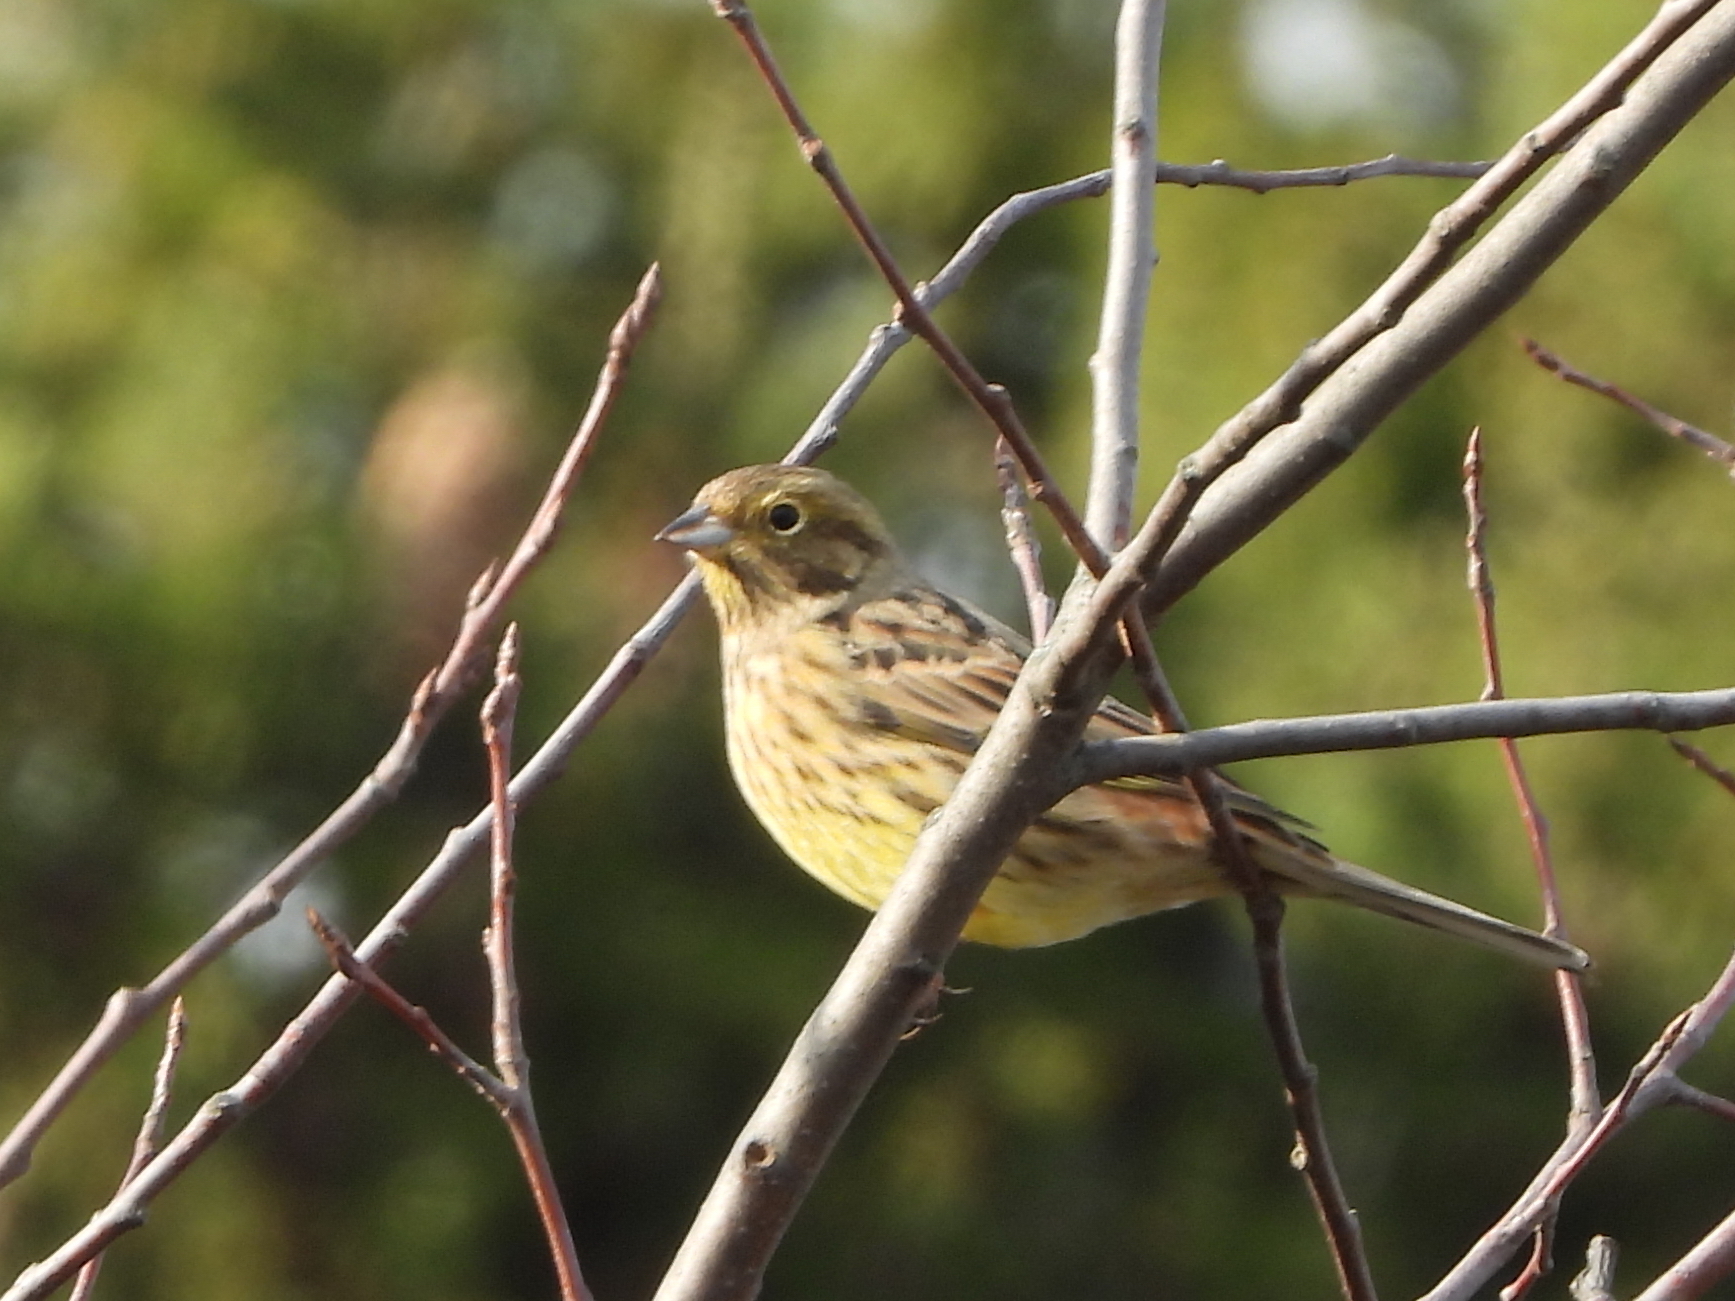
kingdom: Animalia
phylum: Chordata
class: Aves
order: Passeriformes
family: Emberizidae
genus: Emberiza
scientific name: Emberiza citrinella
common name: Yellowhammer
